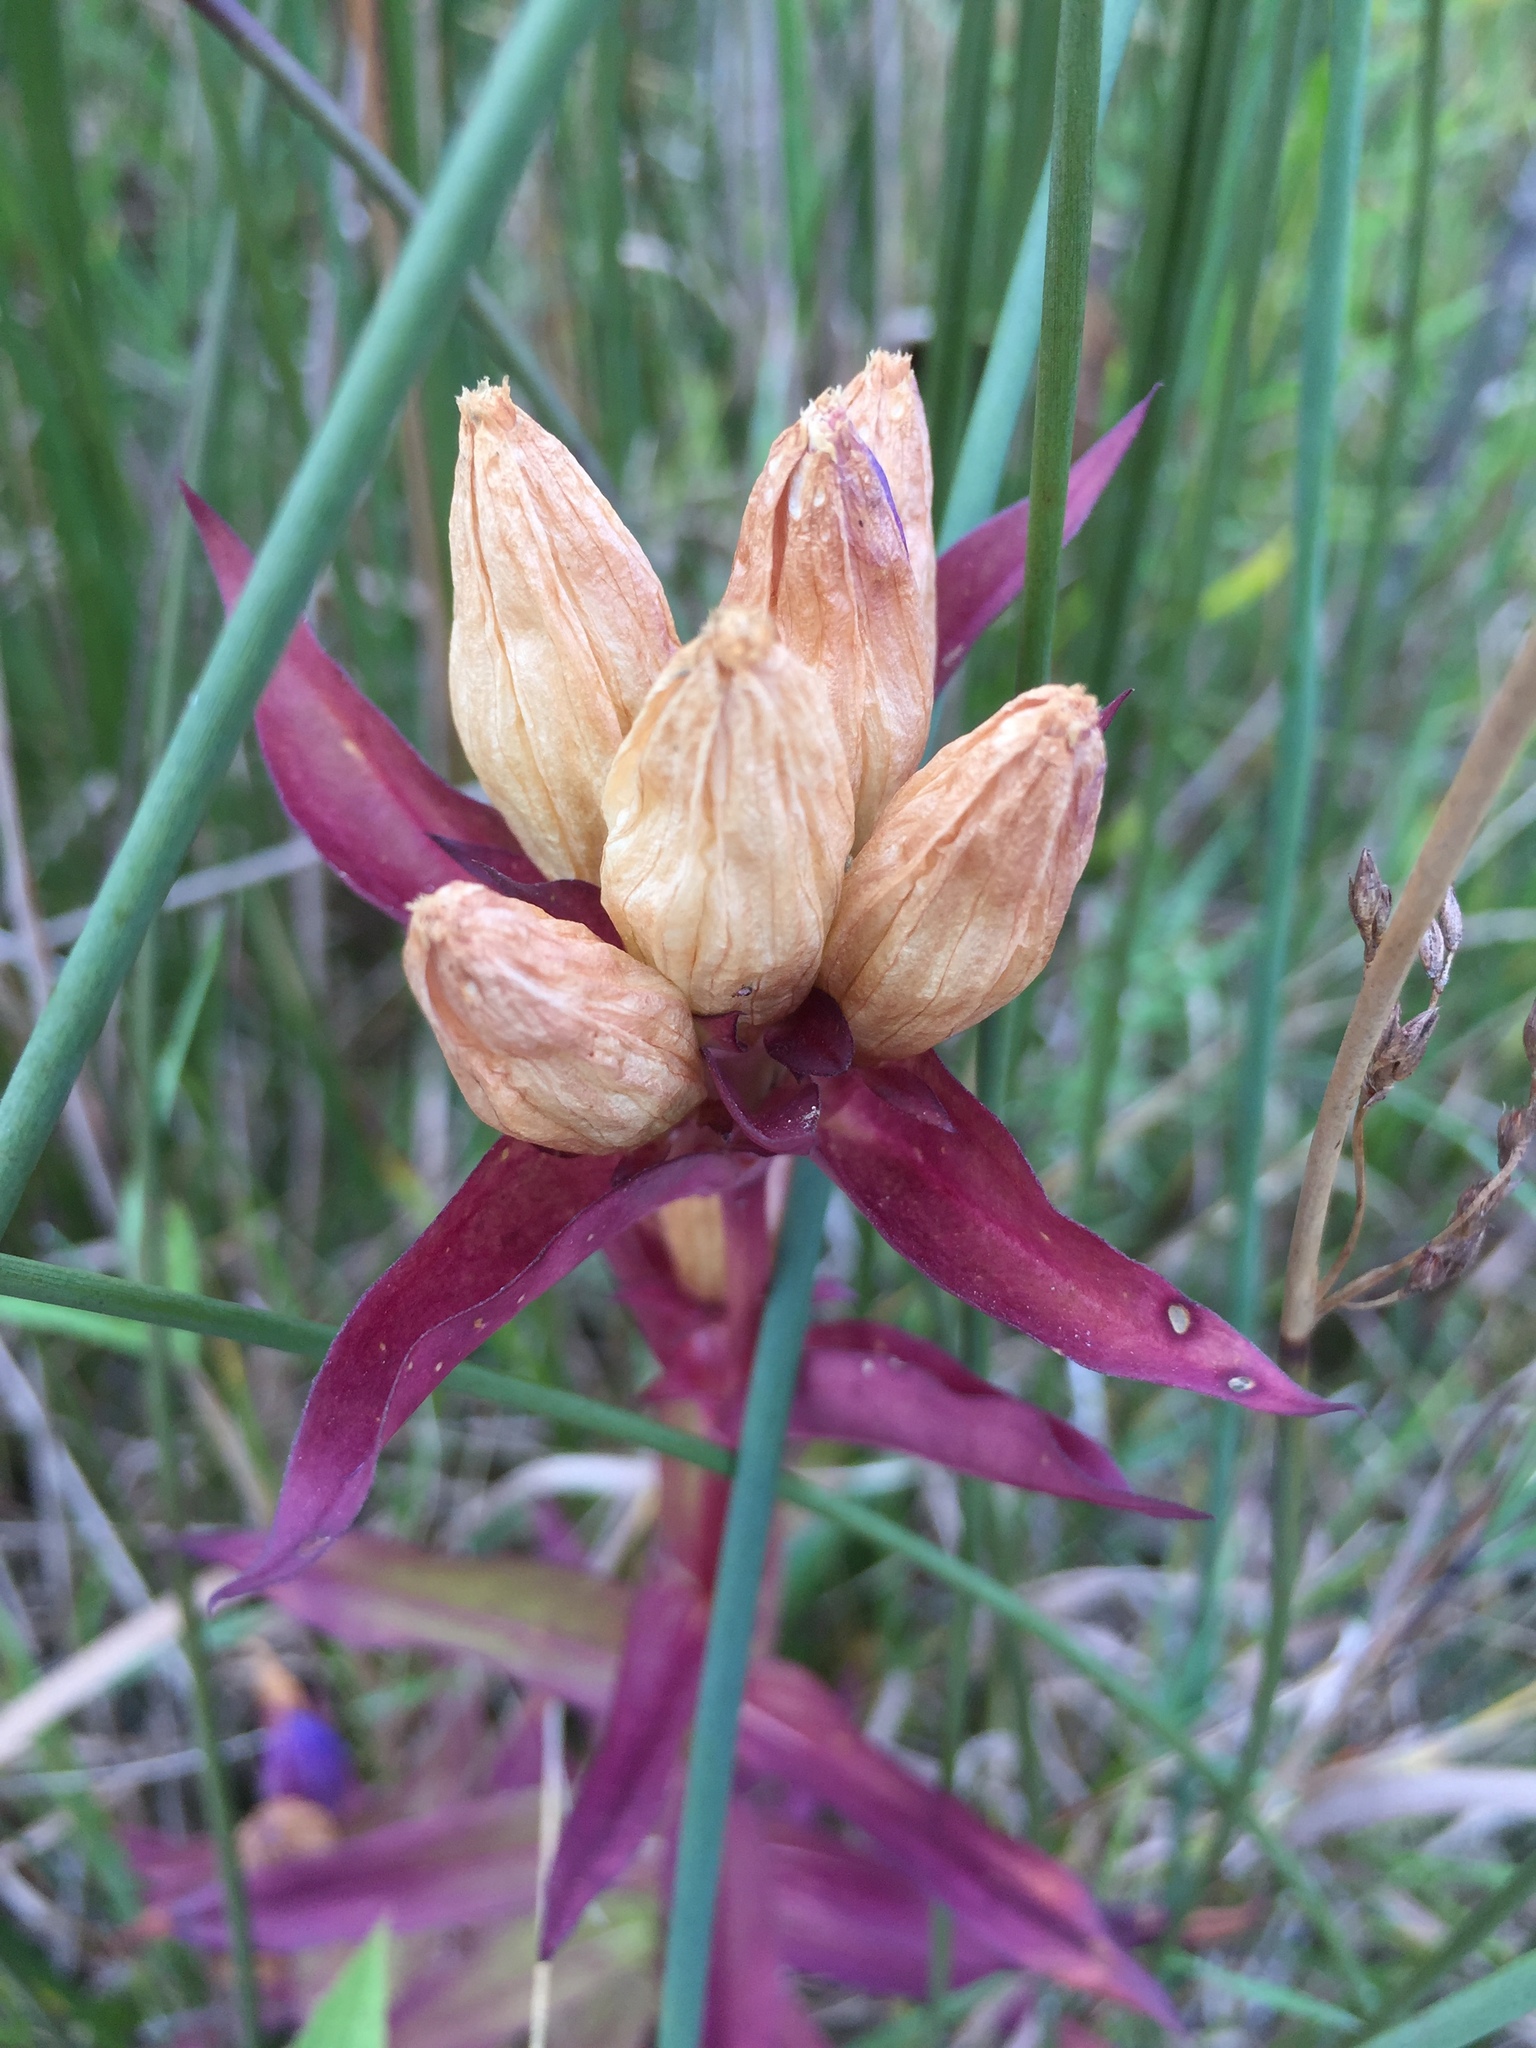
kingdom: Plantae
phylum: Tracheophyta
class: Magnoliopsida
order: Gentianales
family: Gentianaceae
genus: Gentiana
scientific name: Gentiana rubricaulis
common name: Purple-stemmed gentian
